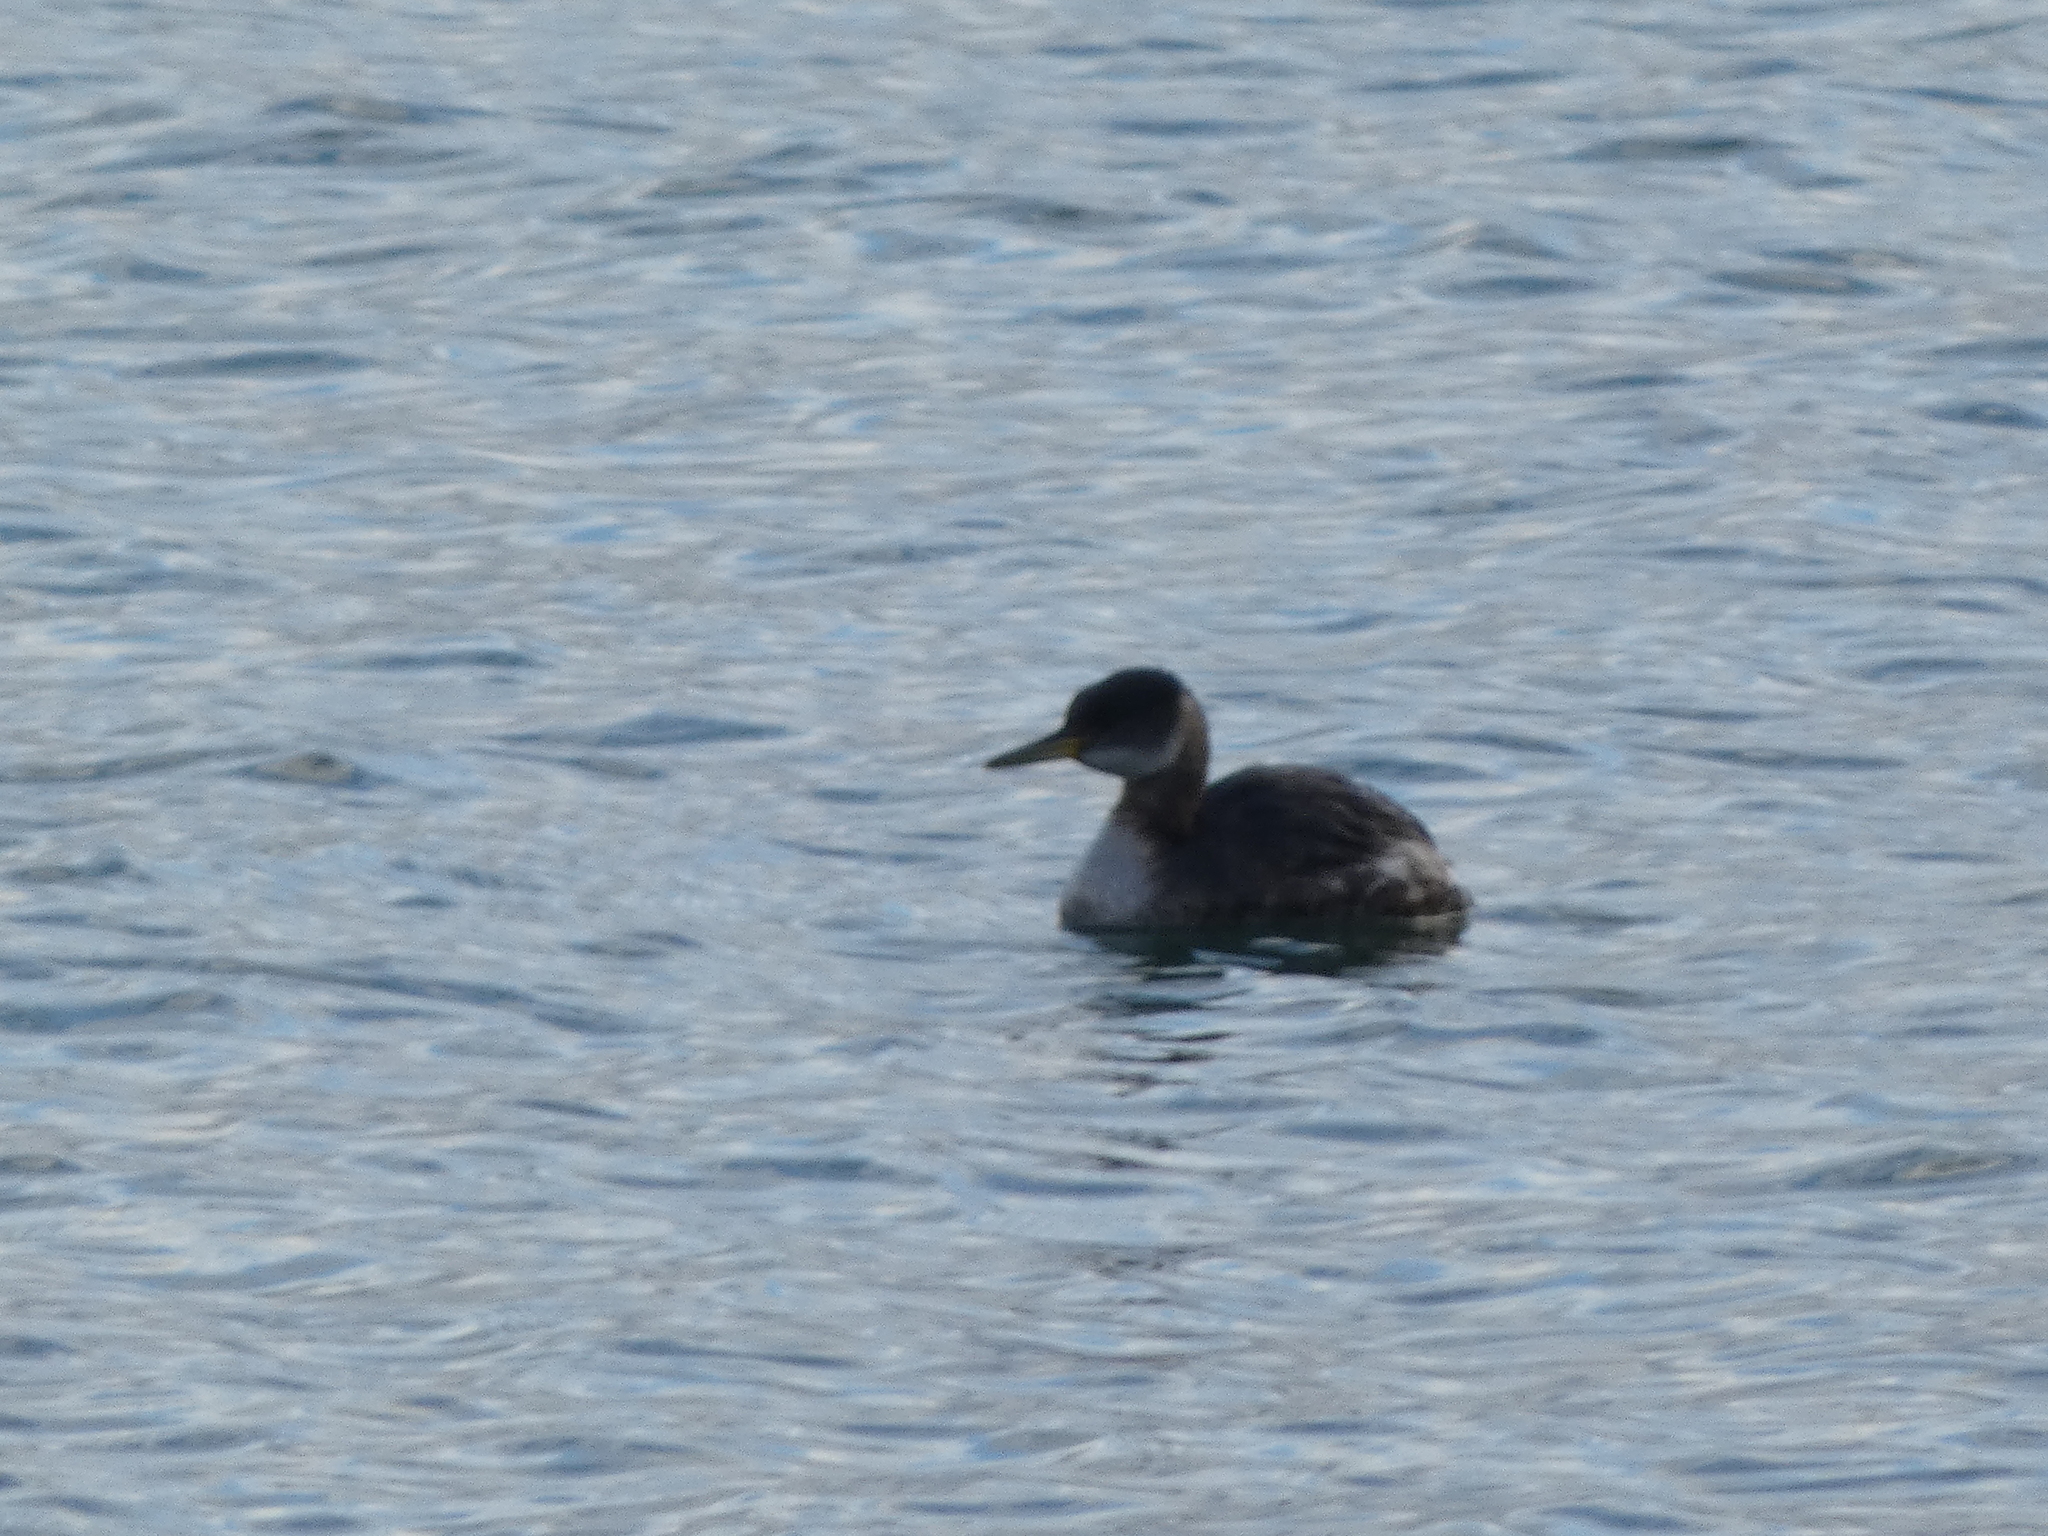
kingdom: Animalia
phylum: Chordata
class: Aves
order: Podicipediformes
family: Podicipedidae
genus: Podiceps
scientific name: Podiceps grisegena
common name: Red-necked grebe
